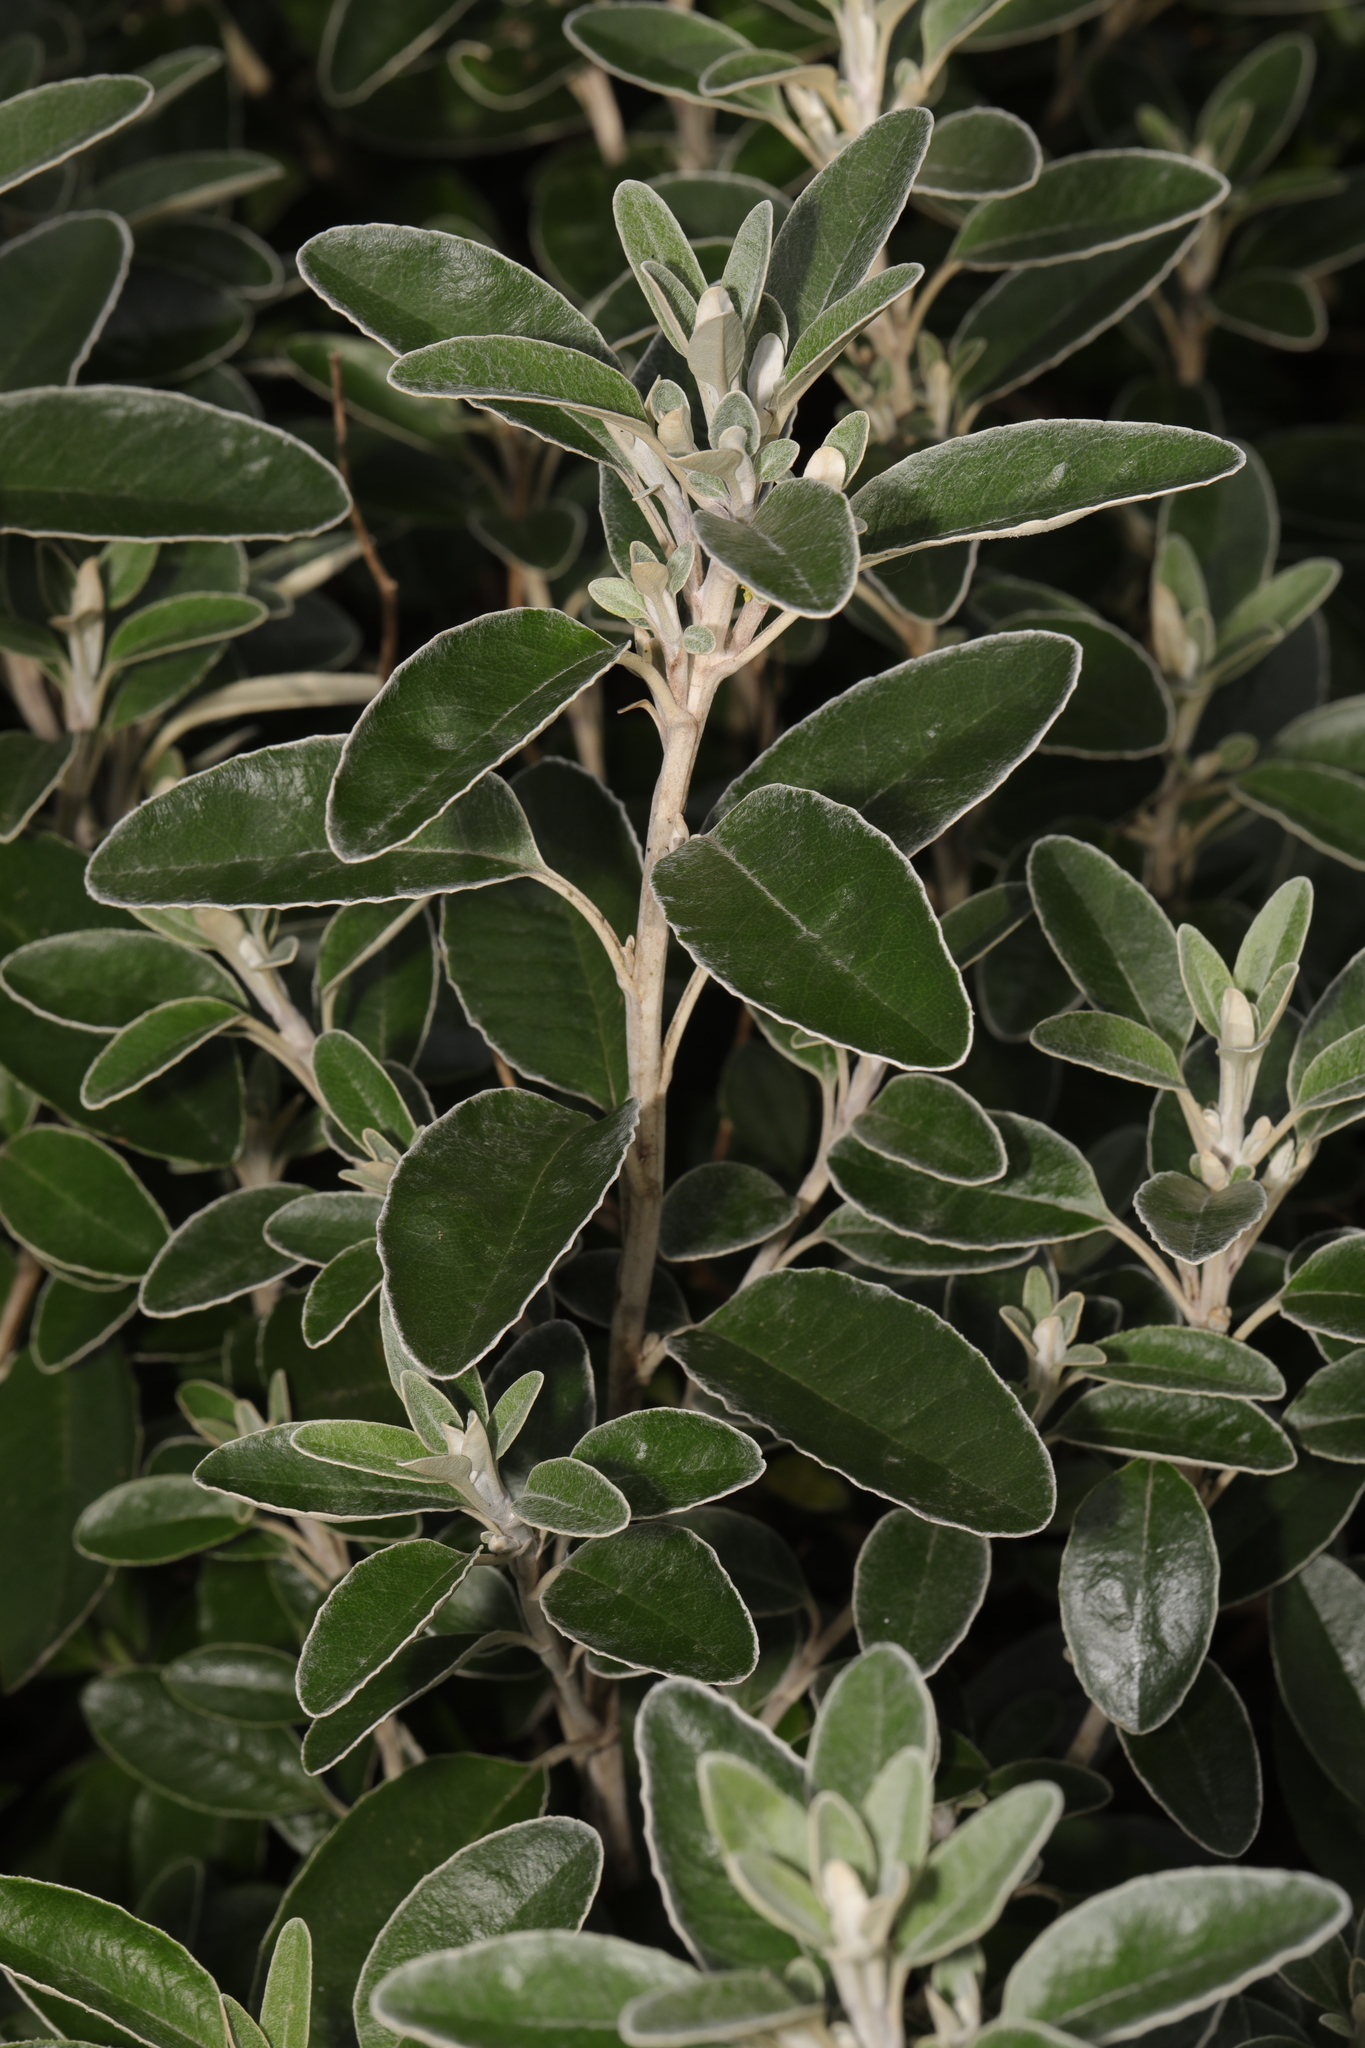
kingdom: Plantae
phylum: Tracheophyta
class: Magnoliopsida
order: Asterales
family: Asteraceae
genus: Brachyglottis
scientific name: Brachyglottis jubar
